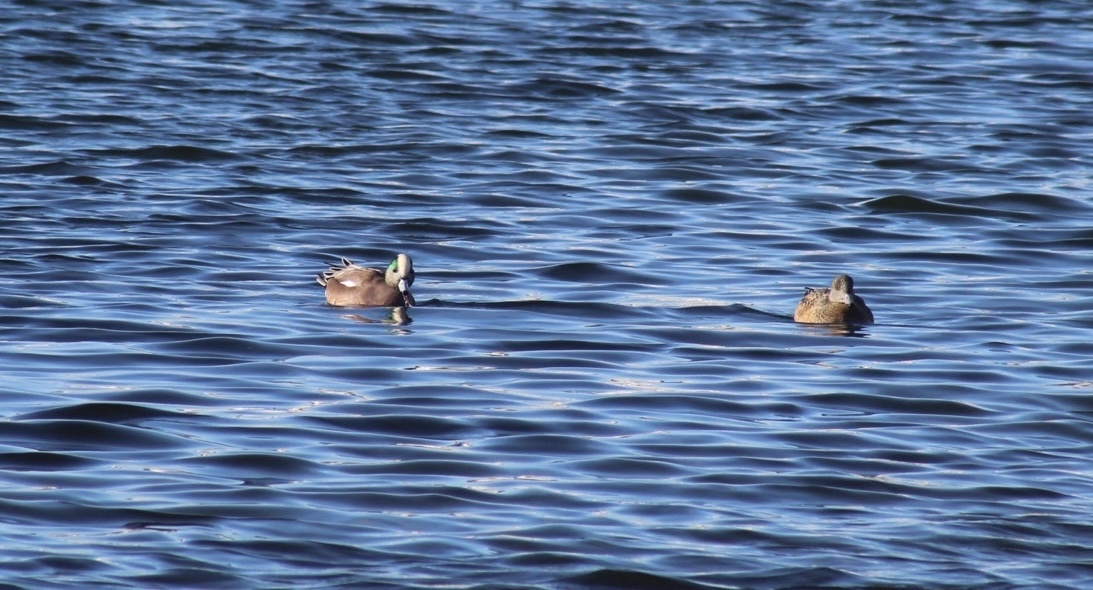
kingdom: Animalia
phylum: Chordata
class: Aves
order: Anseriformes
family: Anatidae
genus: Mareca
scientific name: Mareca americana
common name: American wigeon
